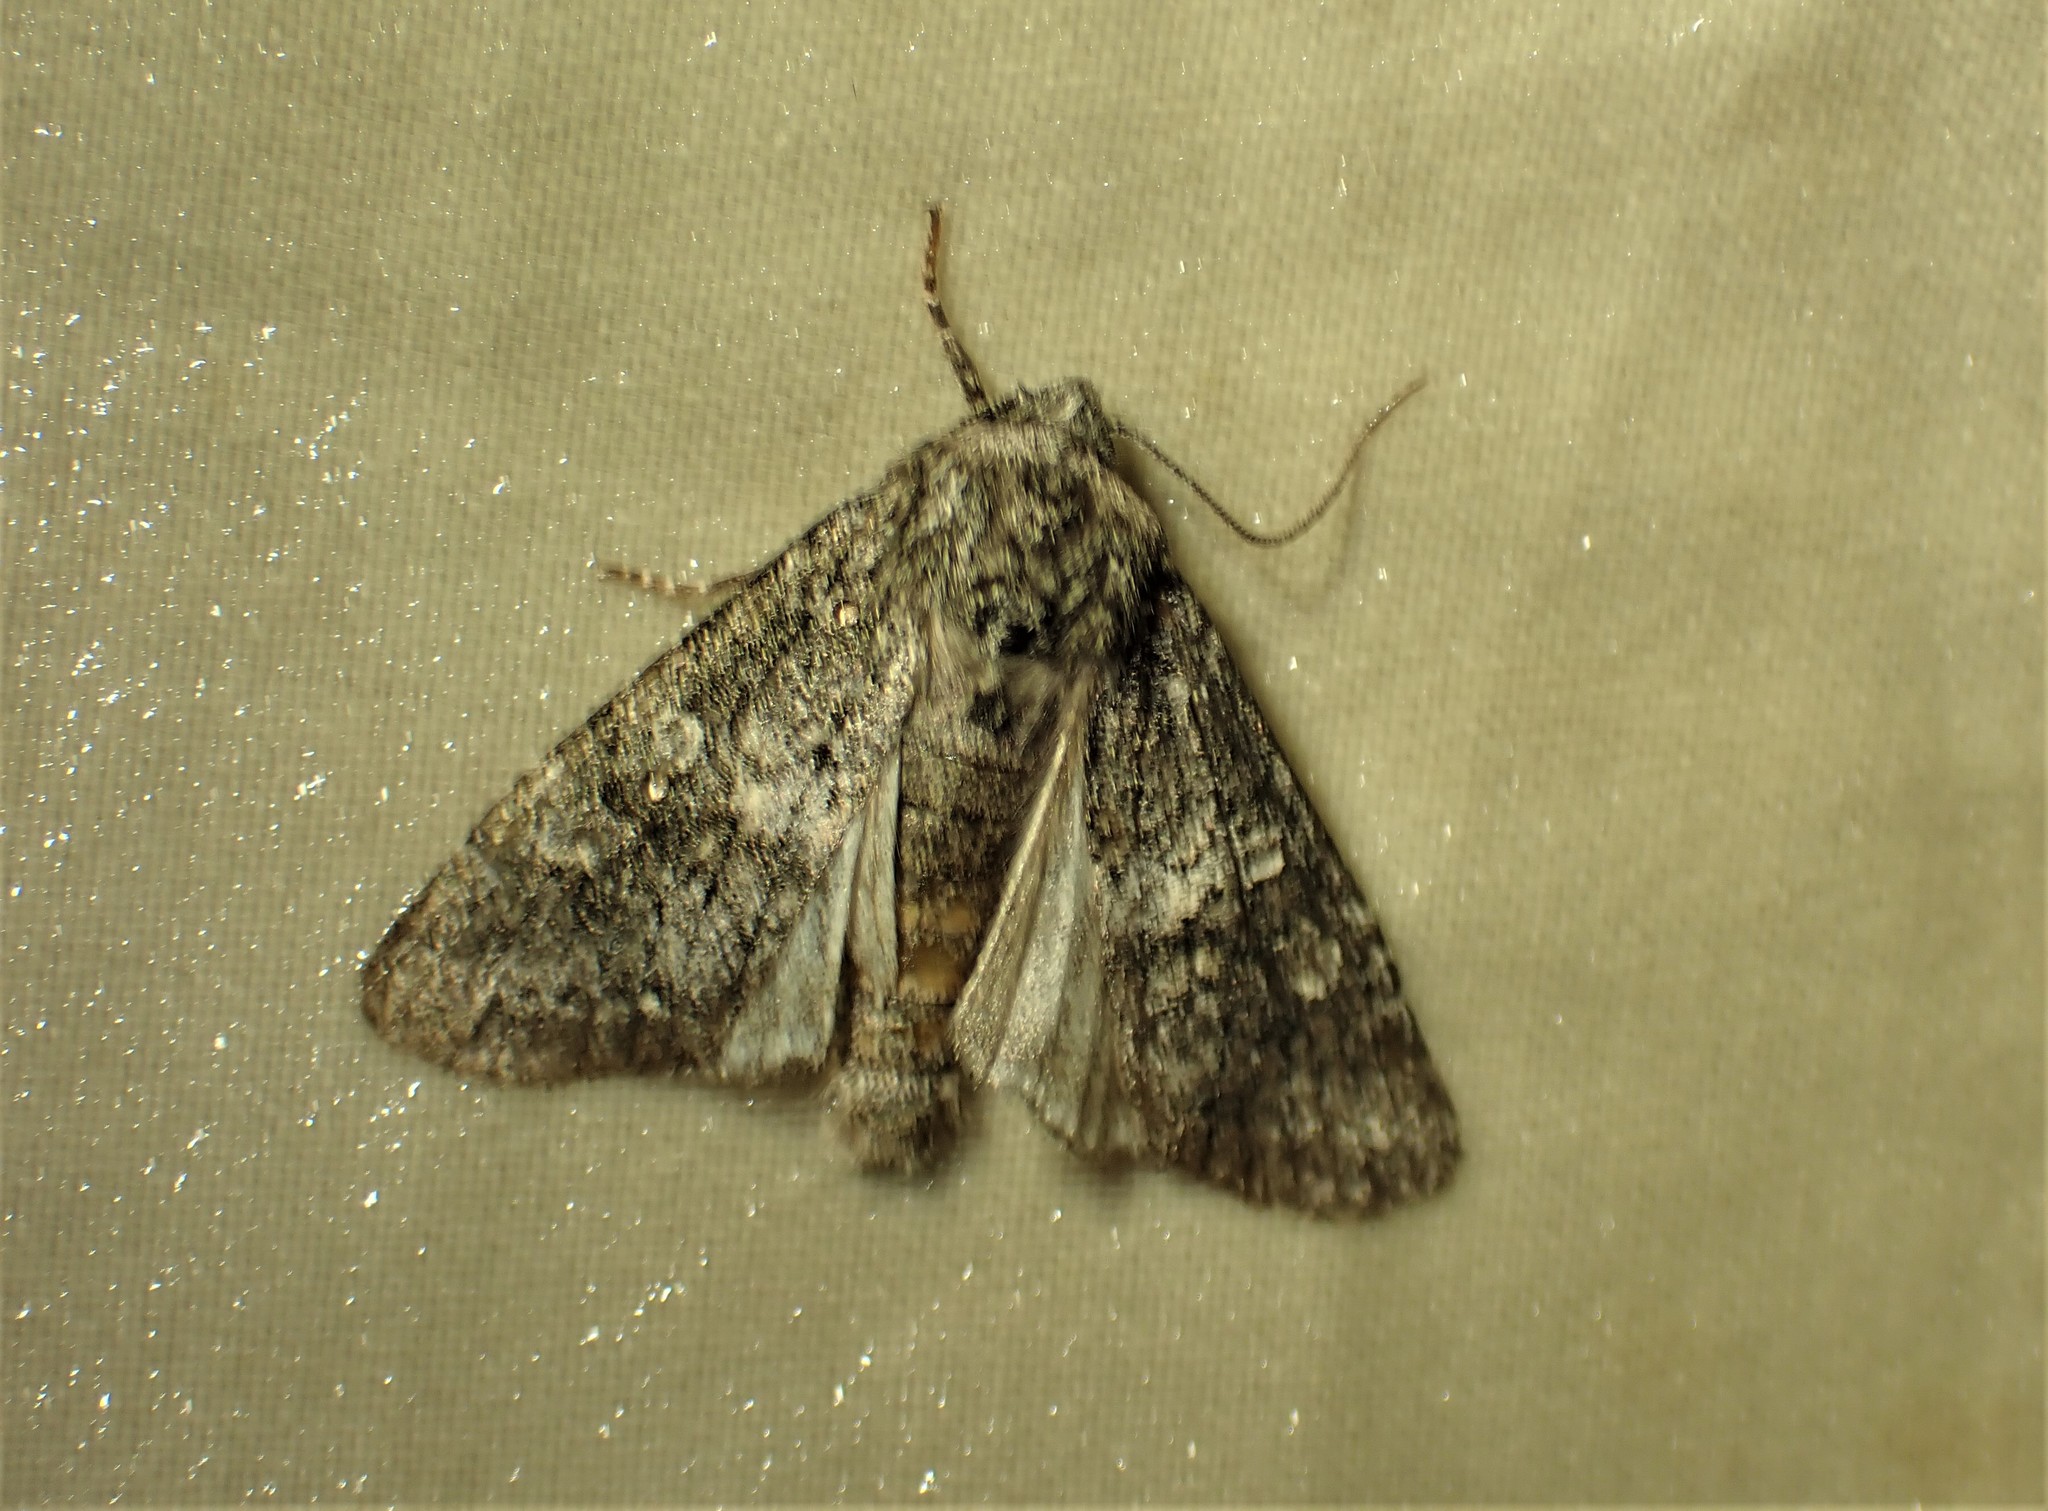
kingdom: Animalia
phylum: Arthropoda
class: Insecta
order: Lepidoptera
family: Noctuidae
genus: Egira
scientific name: Egira dolosa
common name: Lined black aspen cat.
